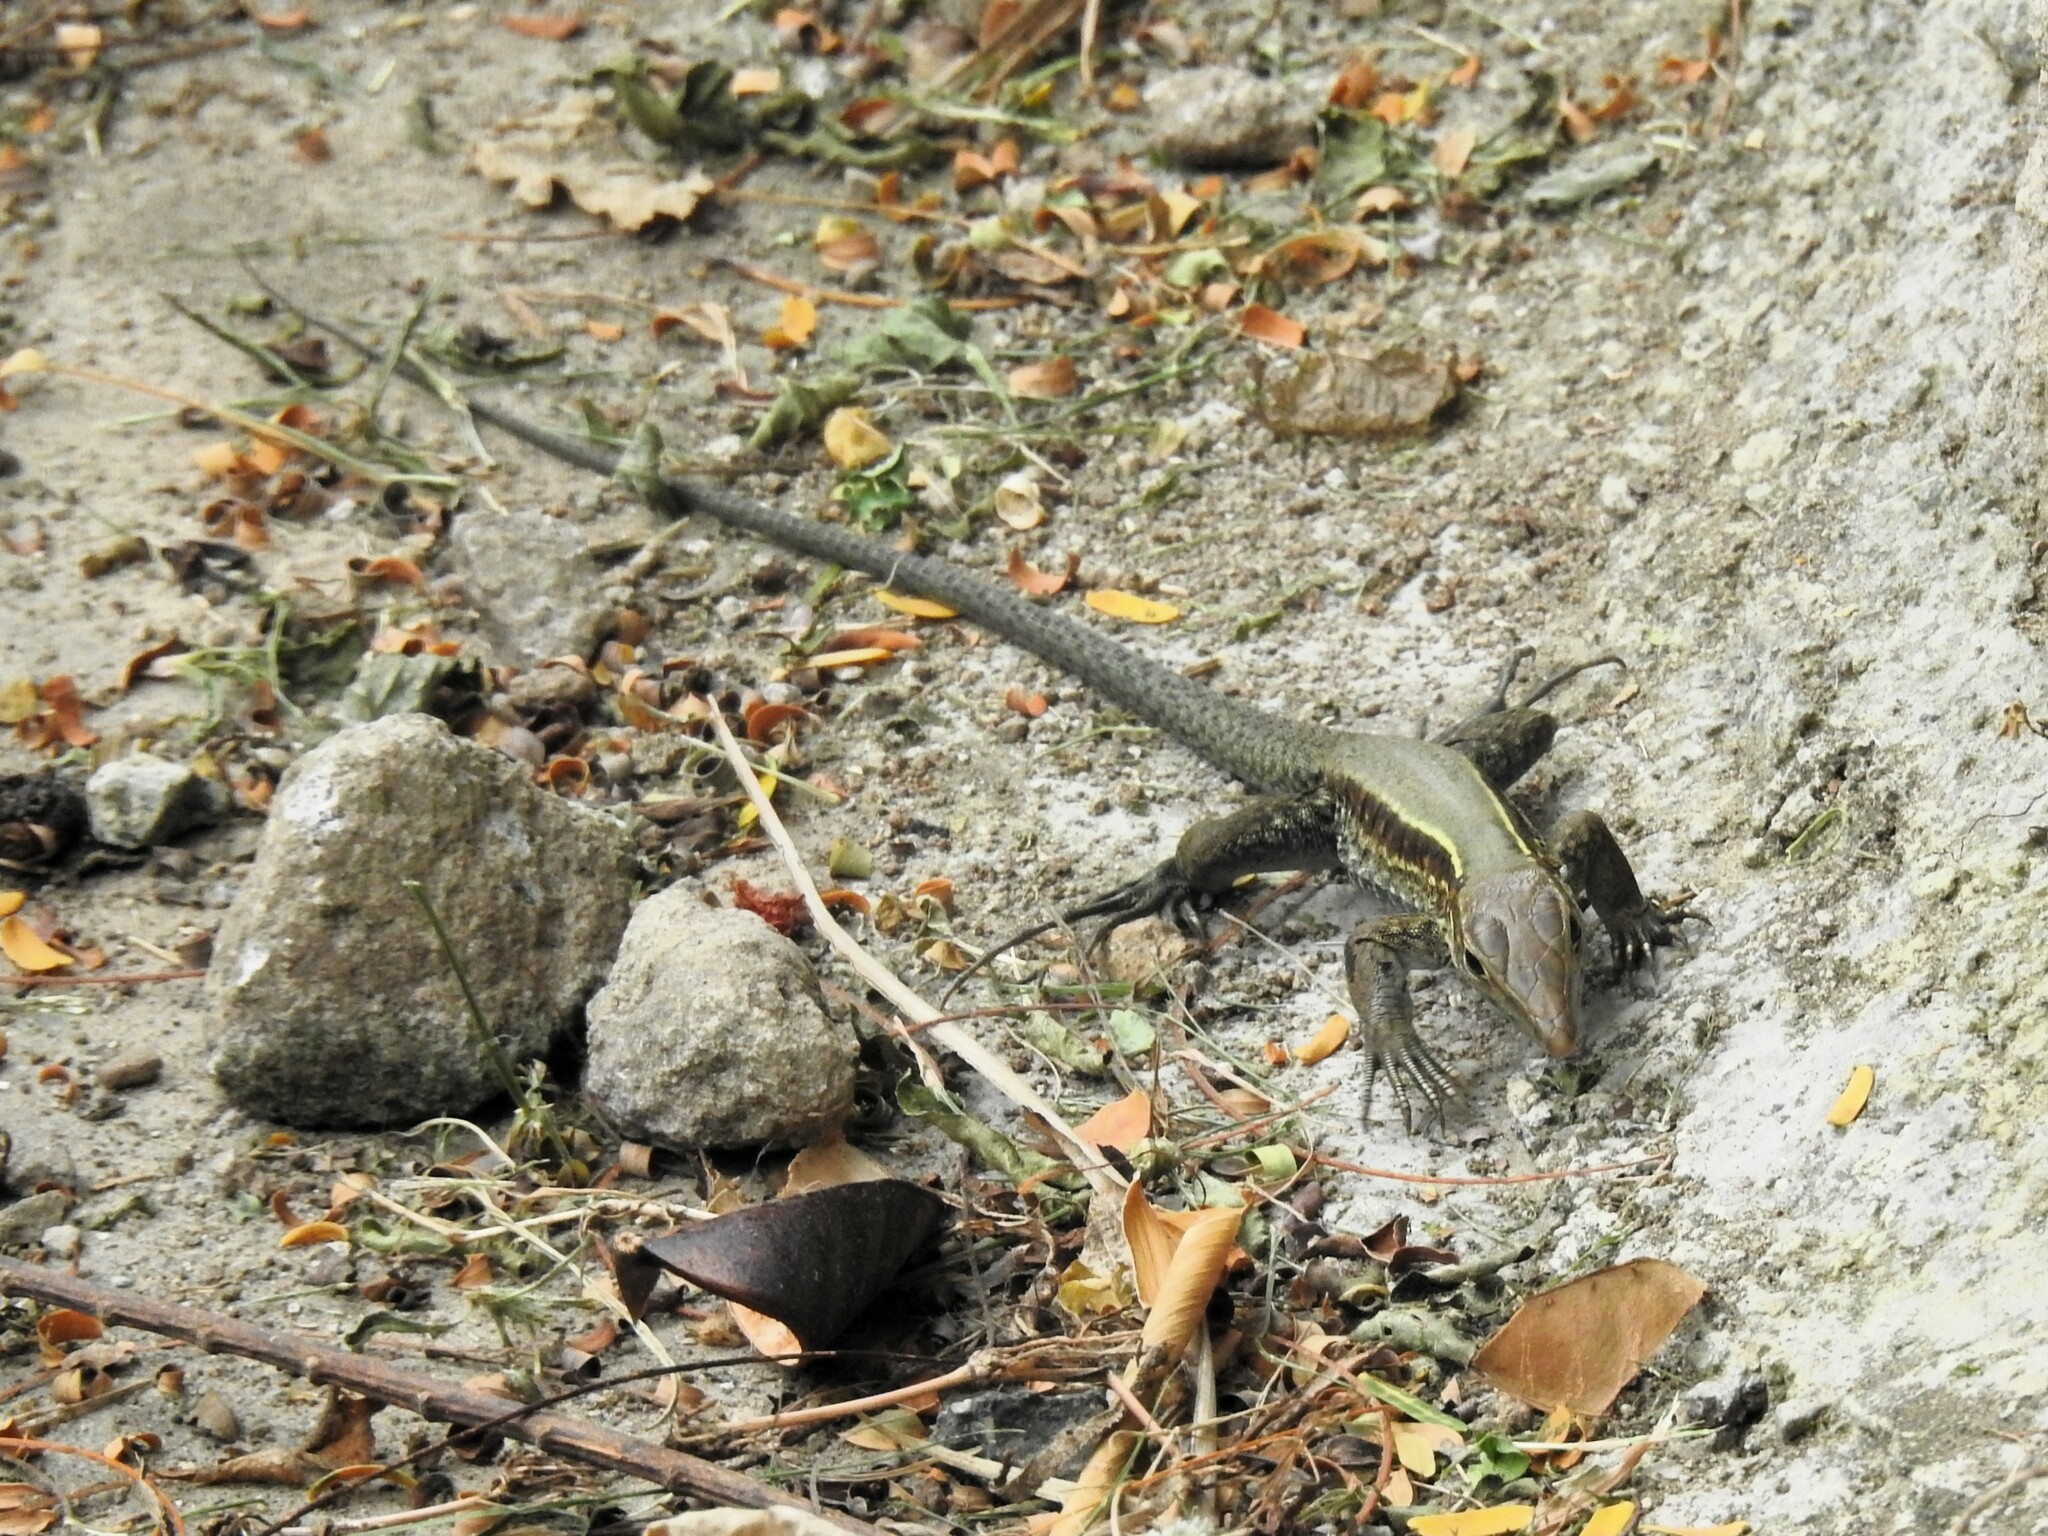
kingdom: Animalia
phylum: Chordata
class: Squamata
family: Teiidae
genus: Pholidoscelis
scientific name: Pholidoscelis fuscatus
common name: Dominican ameiva
